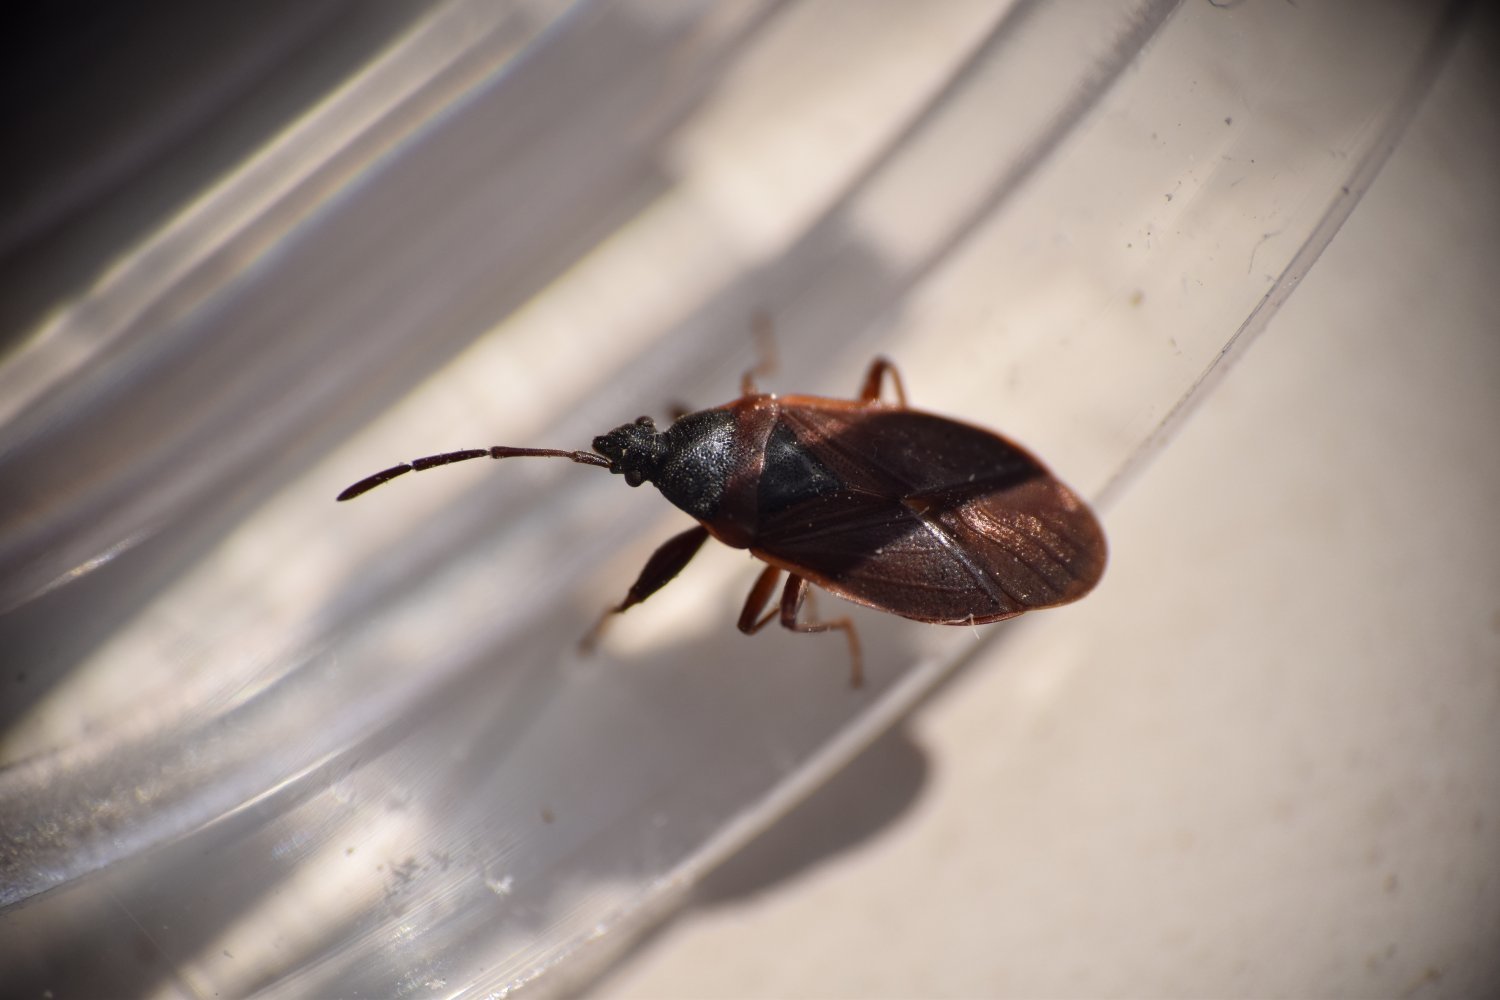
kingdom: Animalia
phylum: Arthropoda
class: Insecta
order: Hemiptera
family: Rhyparochromidae
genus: Gastrodes
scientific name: Gastrodes grossipes
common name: Pine cone bug
